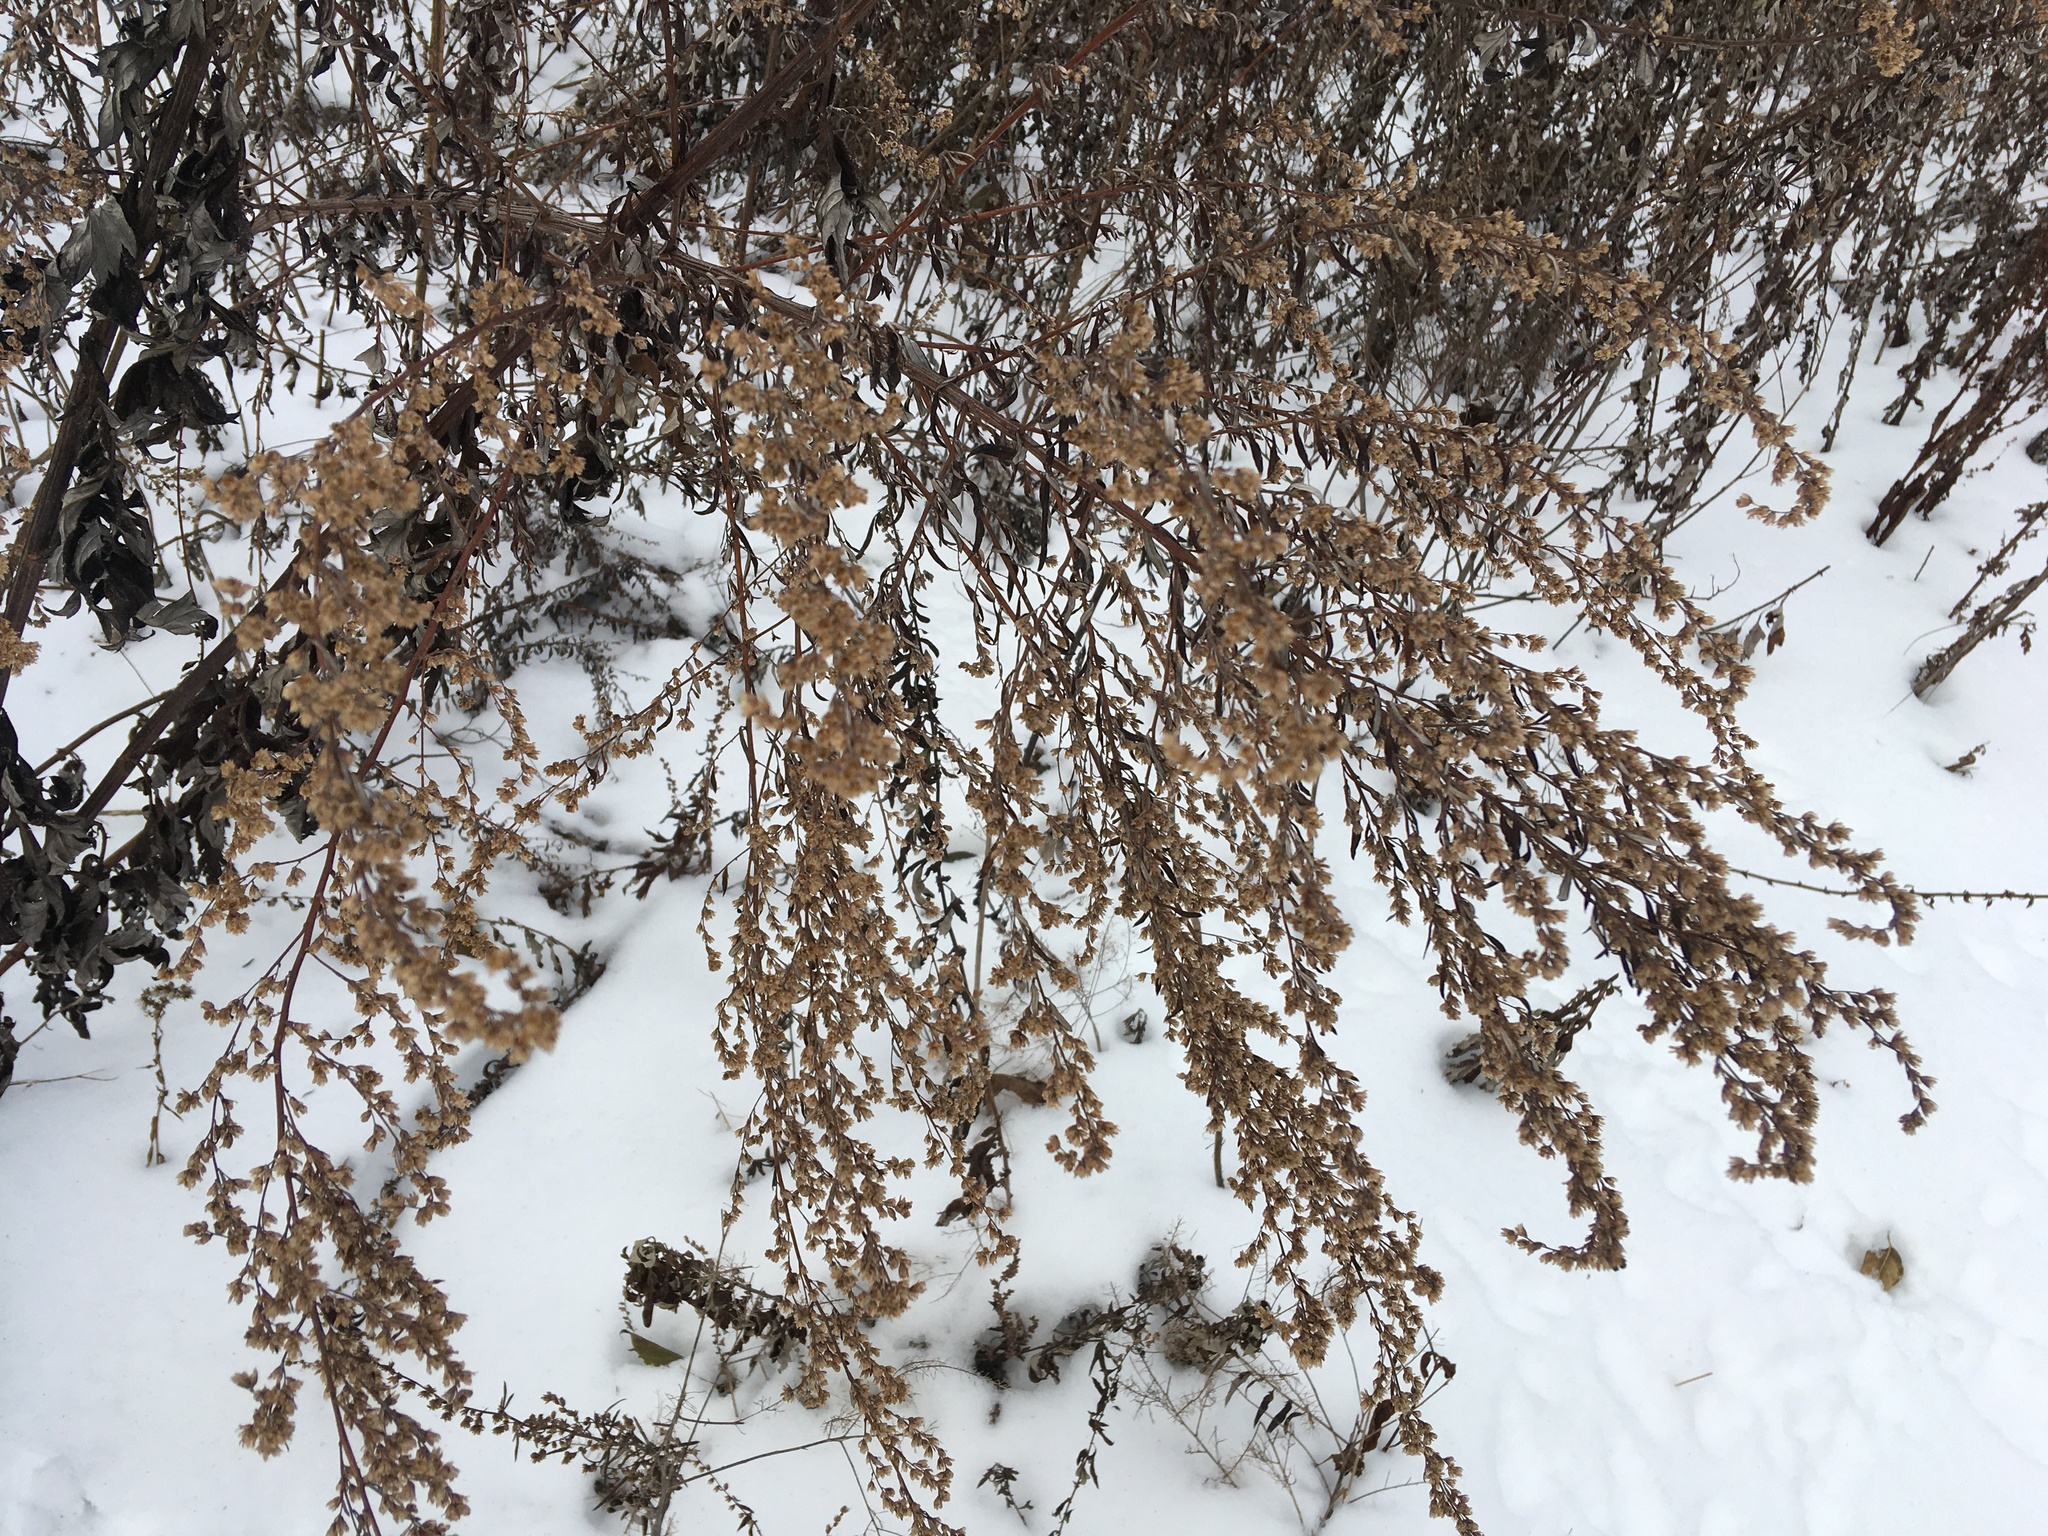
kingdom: Plantae
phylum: Tracheophyta
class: Magnoliopsida
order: Asterales
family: Asteraceae
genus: Artemisia
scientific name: Artemisia vulgaris
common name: Mugwort
